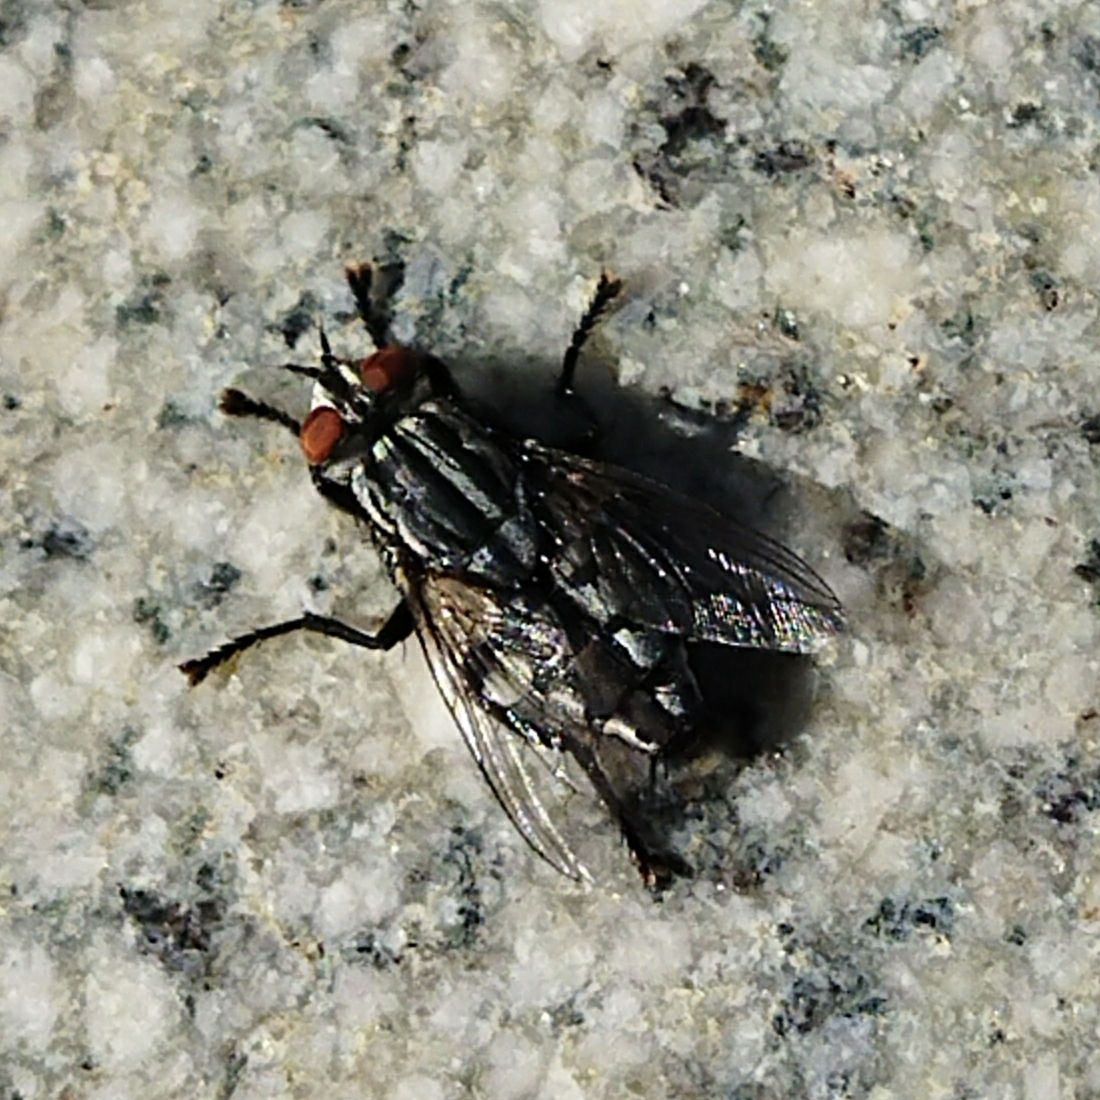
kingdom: Animalia
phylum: Arthropoda
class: Insecta
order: Diptera
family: Sarcophagidae
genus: Sarcophaga
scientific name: Sarcophaga
